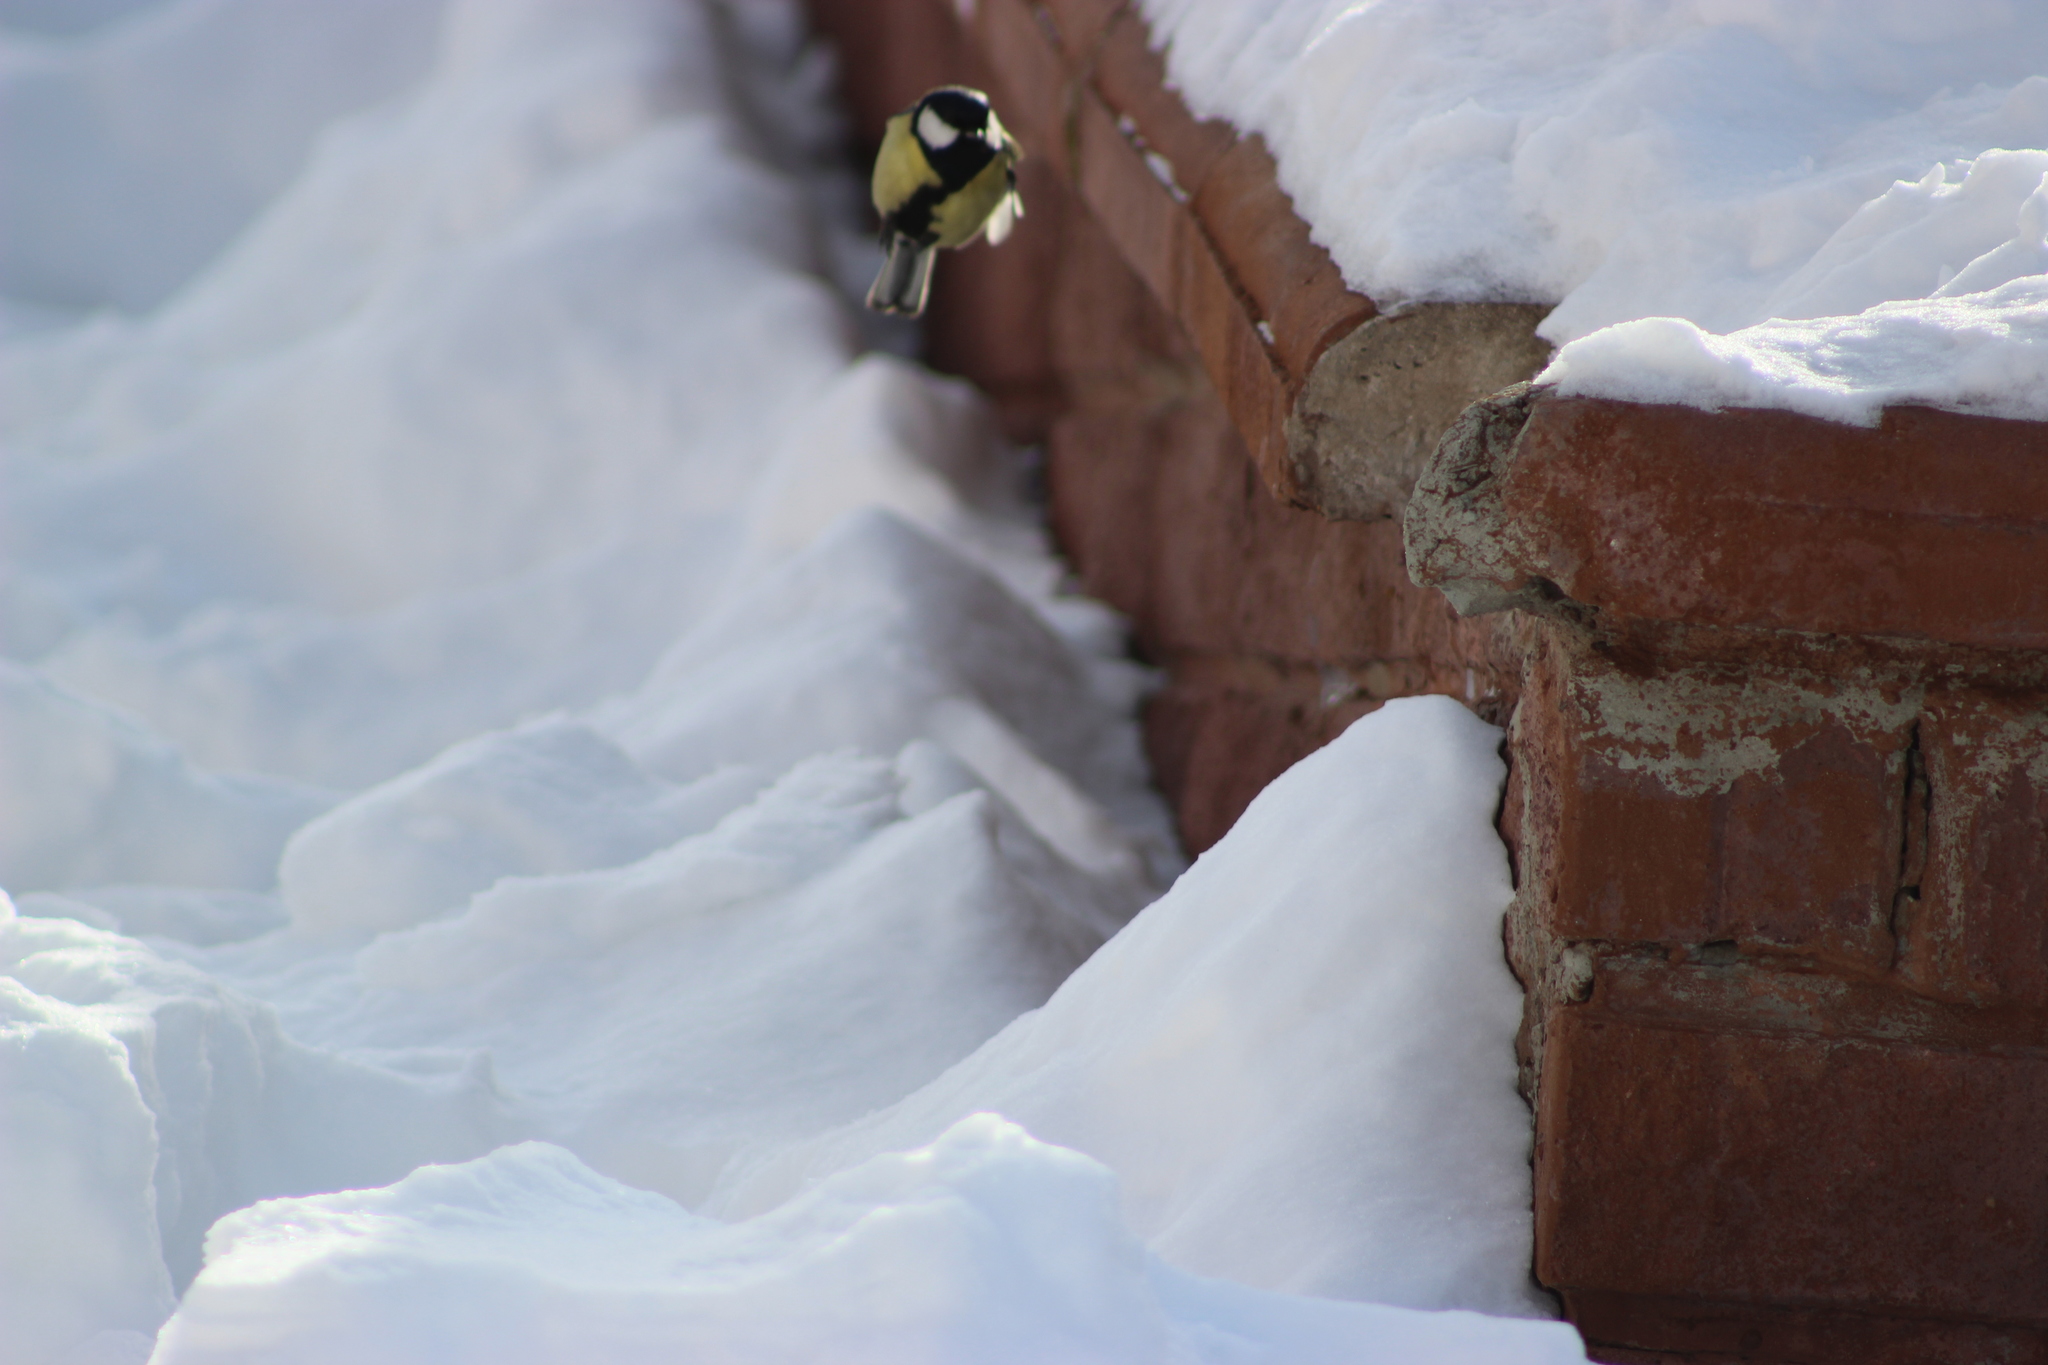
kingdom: Animalia
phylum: Chordata
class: Aves
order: Passeriformes
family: Paridae
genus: Parus
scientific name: Parus major
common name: Great tit
